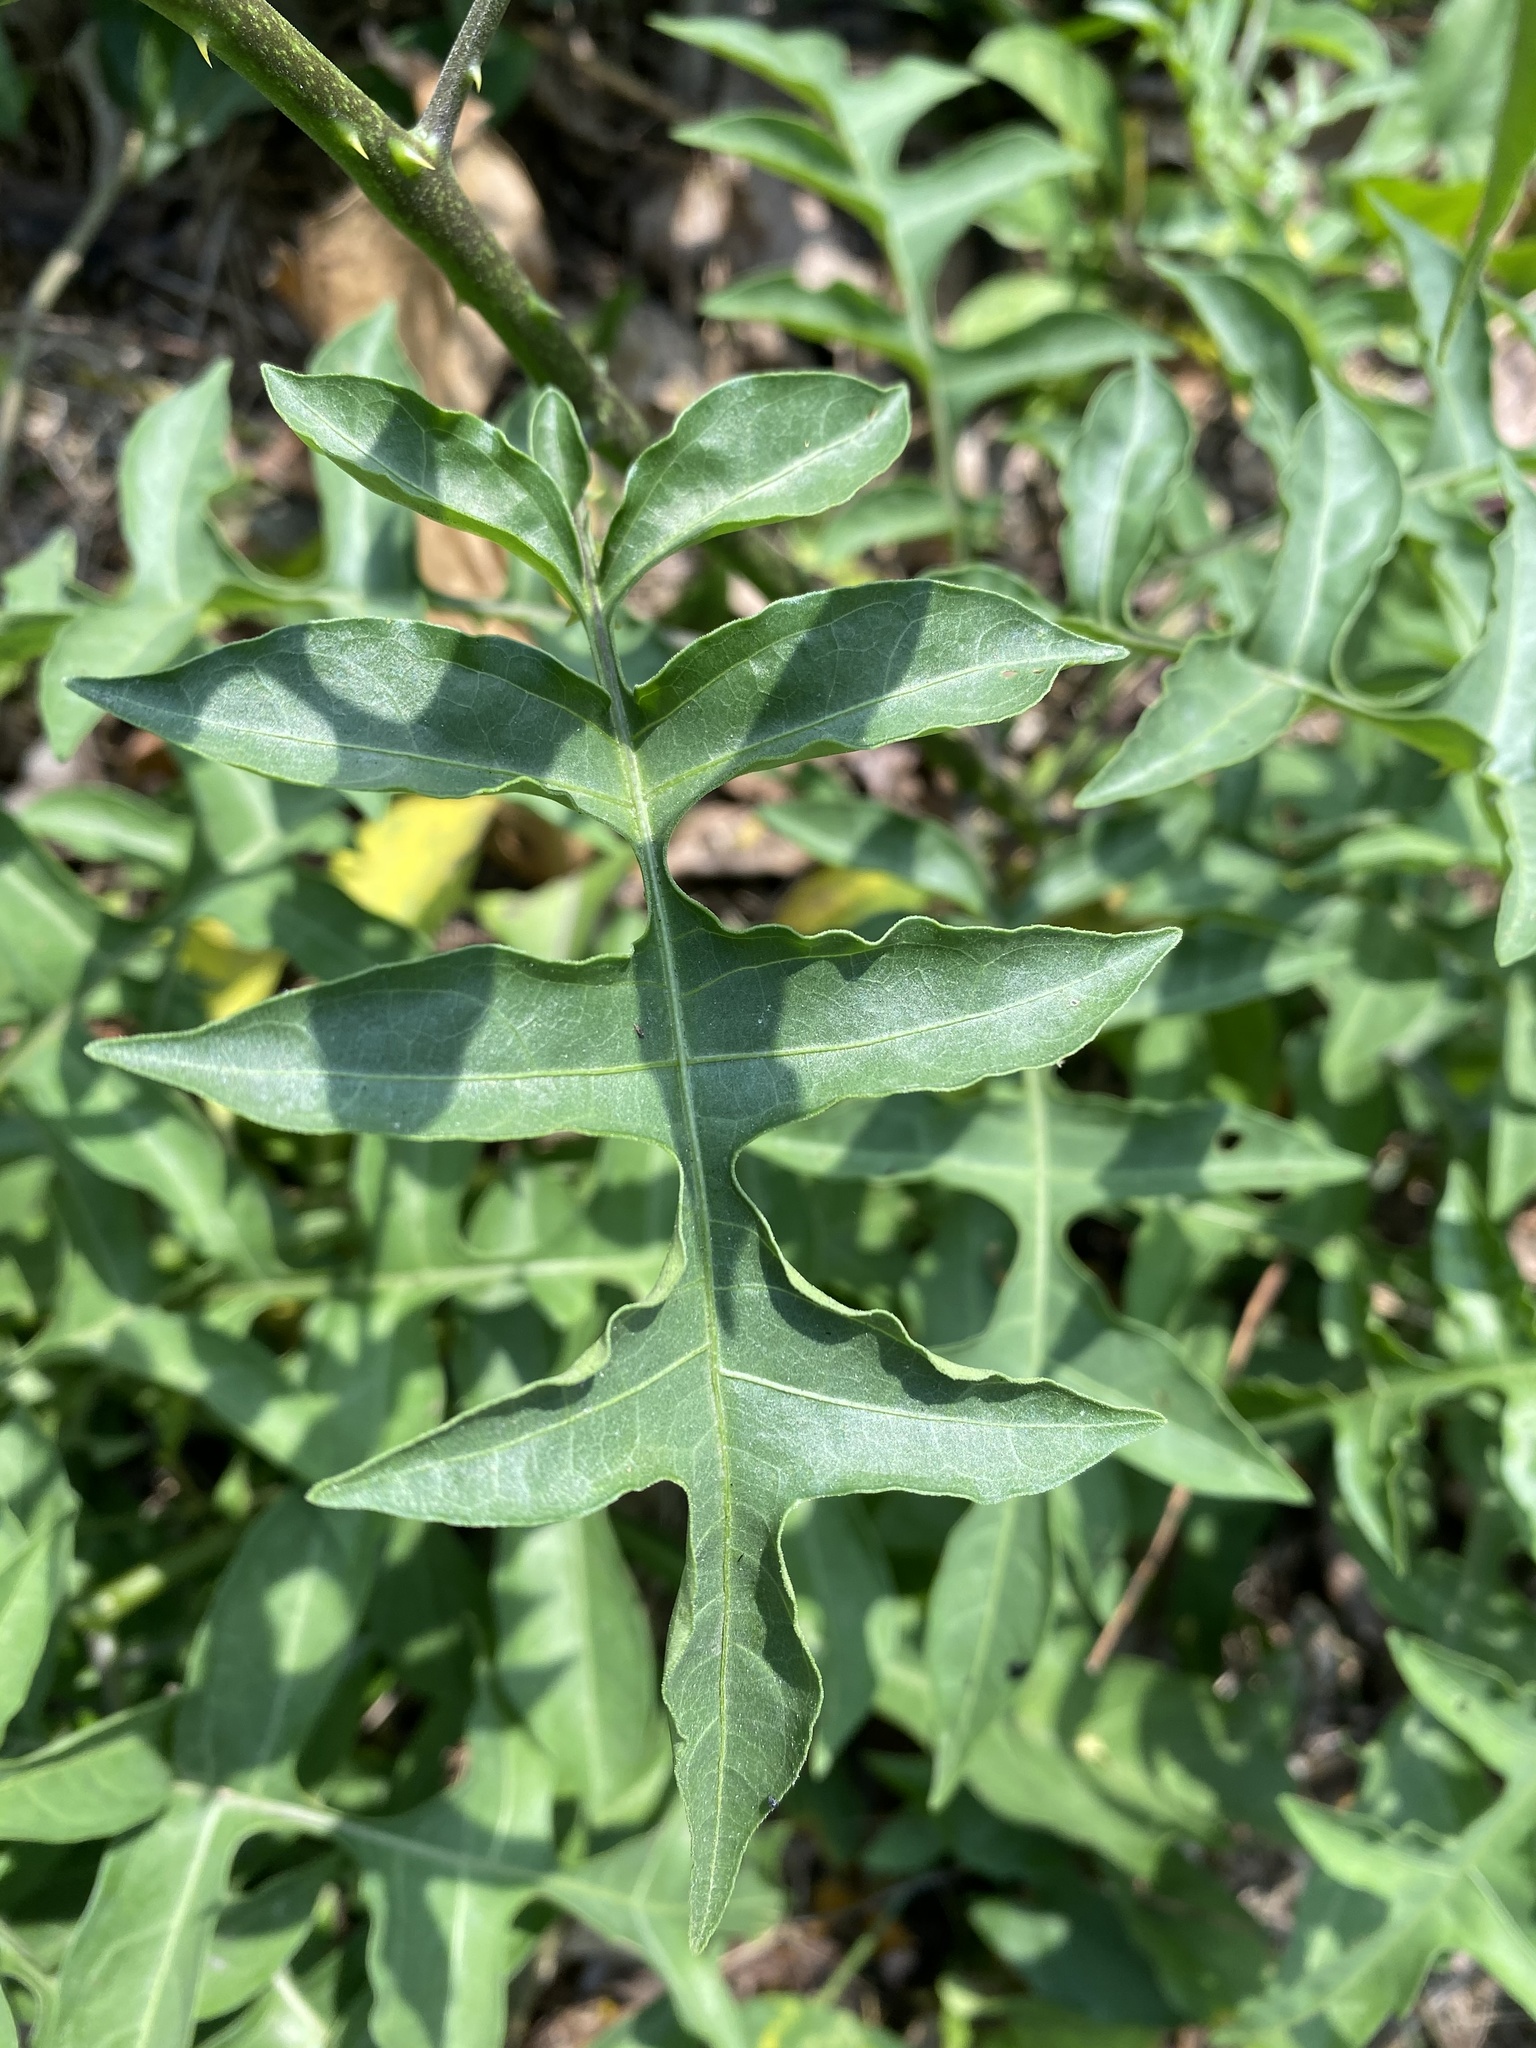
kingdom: Plantae
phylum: Tracheophyta
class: Magnoliopsida
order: Solanales
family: Solanaceae
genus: Solanum
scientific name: Solanum wendlandii
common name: Costa rican nightshade
